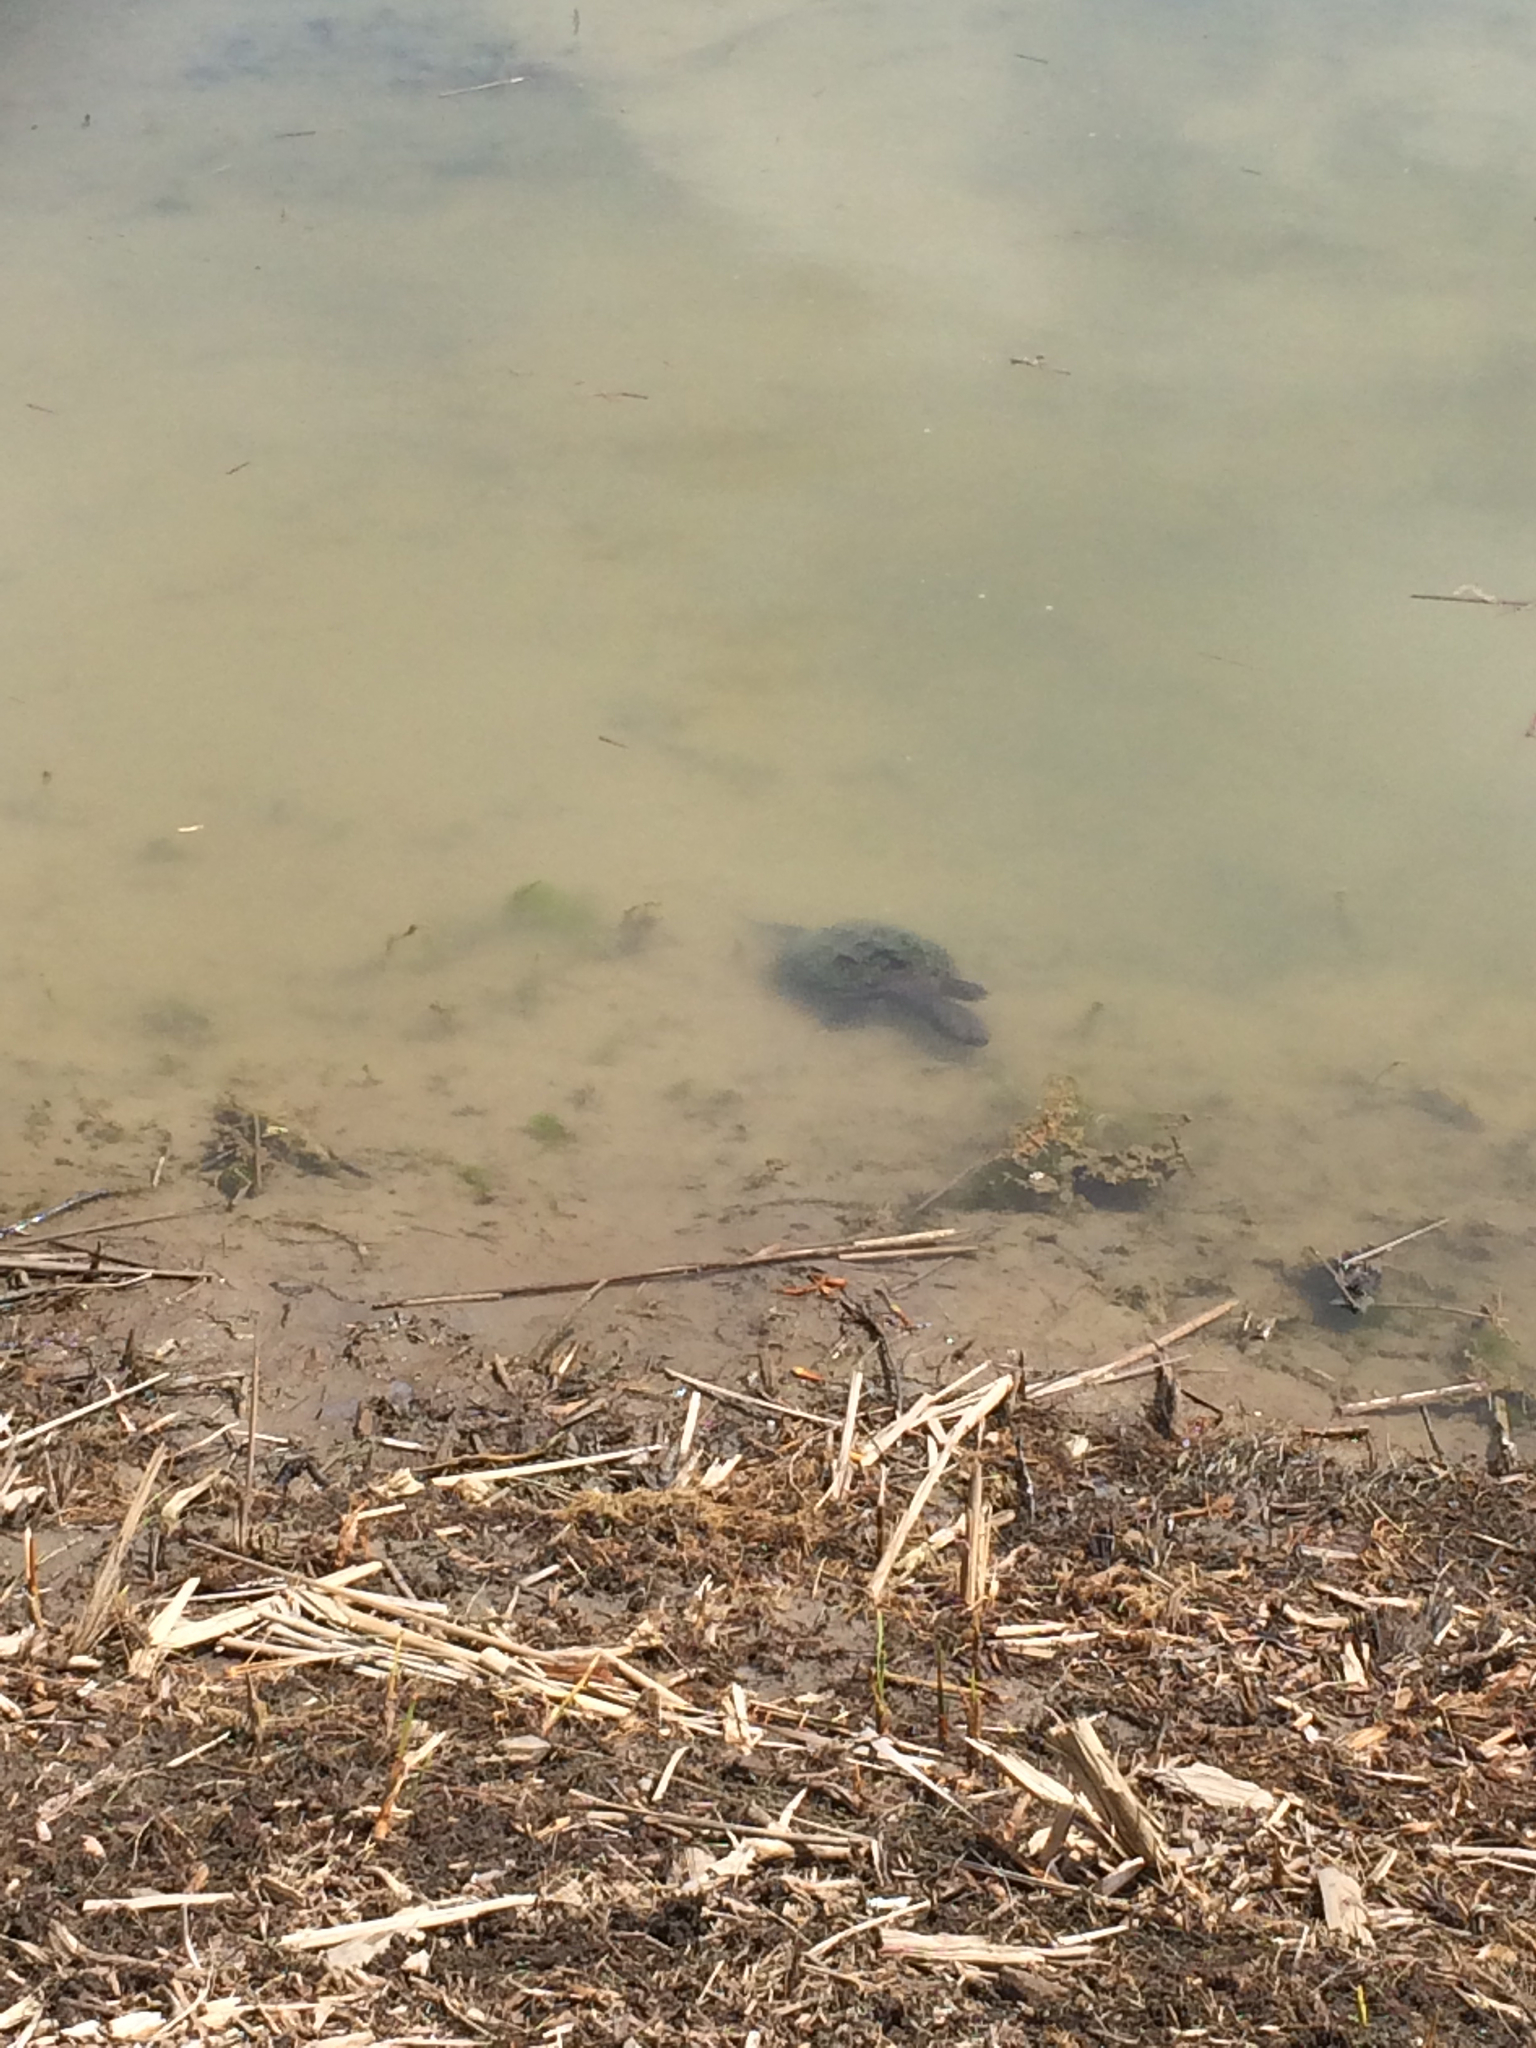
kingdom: Animalia
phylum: Chordata
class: Testudines
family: Chelydridae
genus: Chelydra
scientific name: Chelydra serpentina
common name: Common snapping turtle
